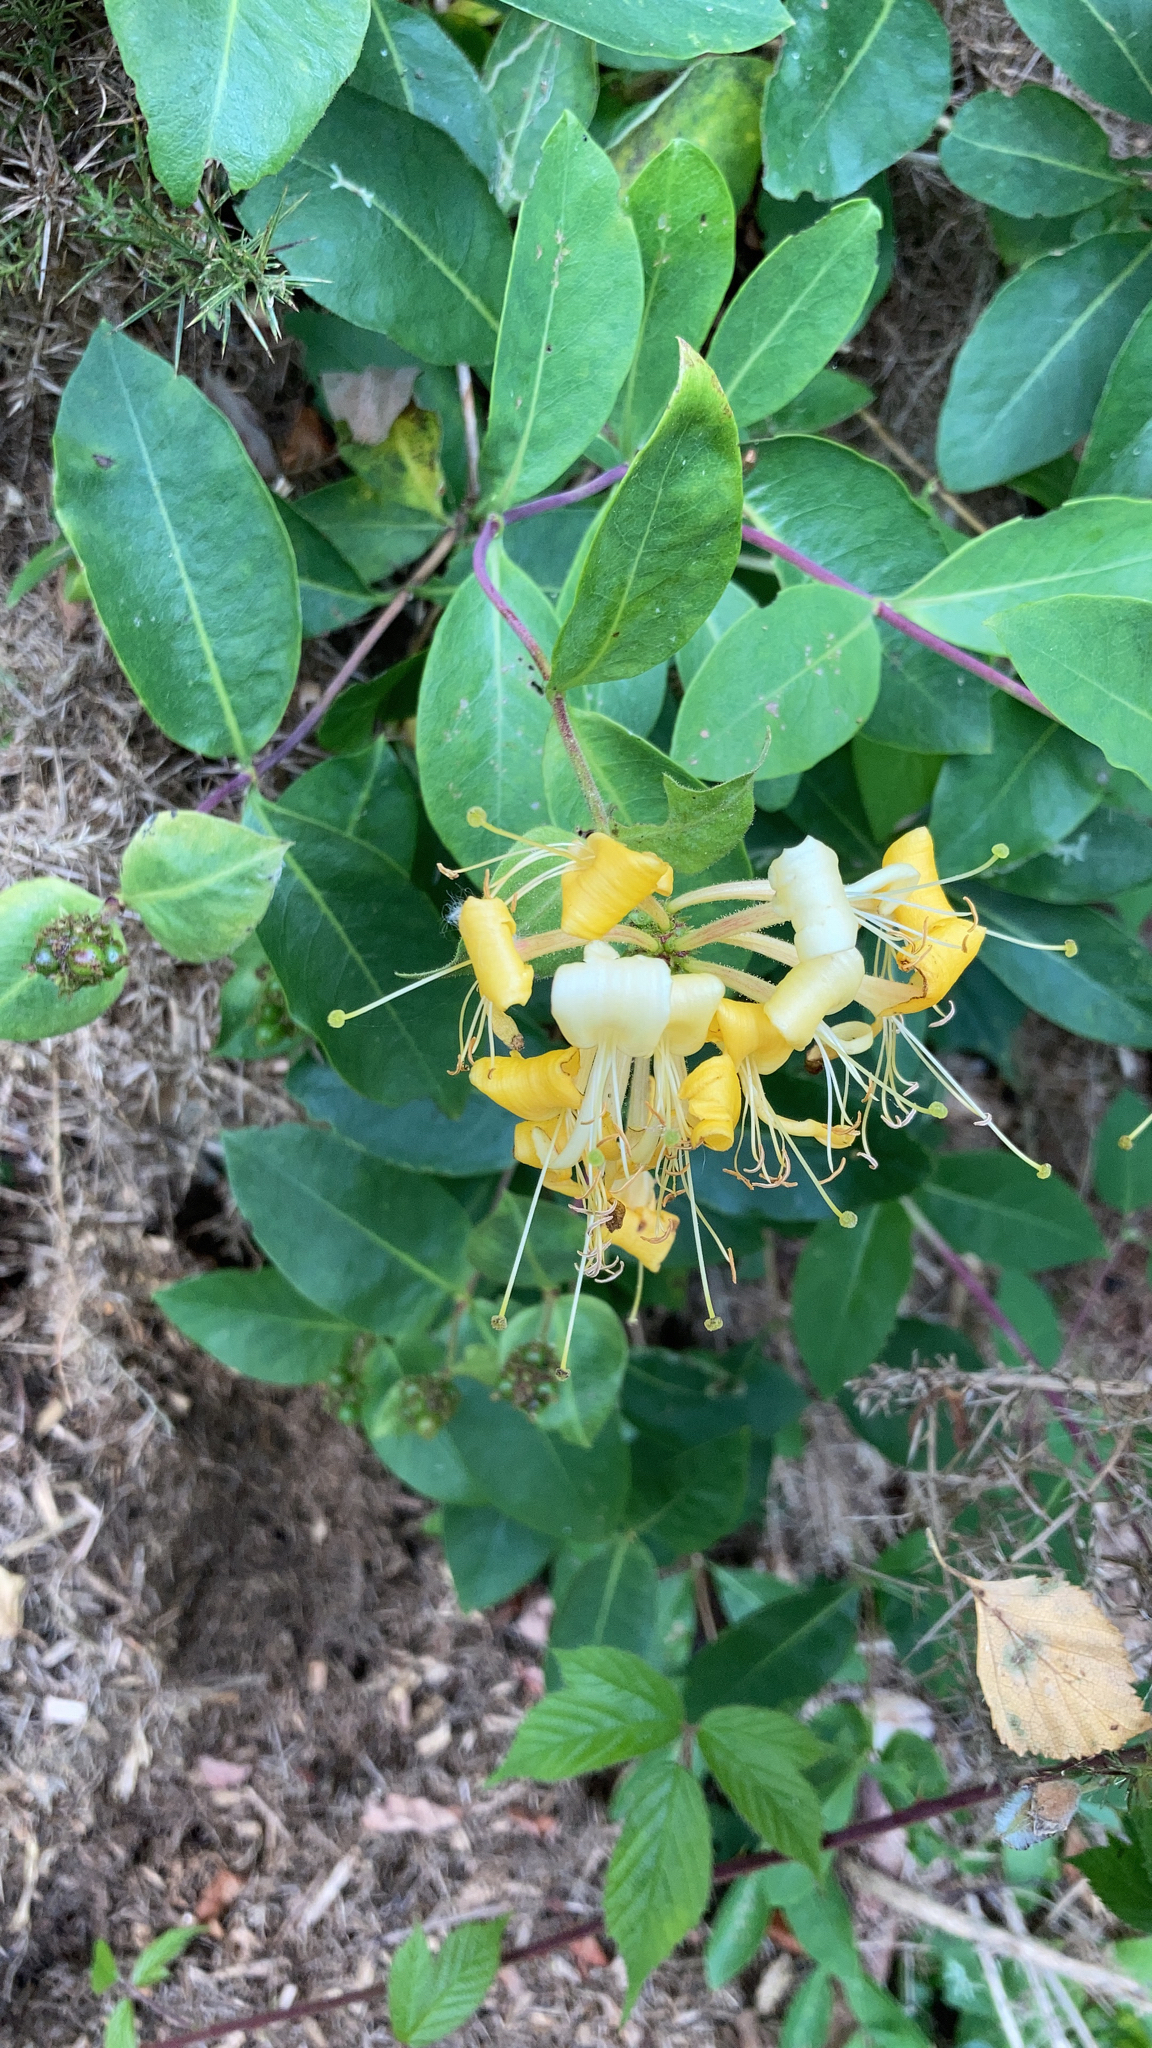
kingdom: Plantae
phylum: Tracheophyta
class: Magnoliopsida
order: Dipsacales
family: Caprifoliaceae
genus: Lonicera
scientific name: Lonicera periclymenum
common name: European honeysuckle
